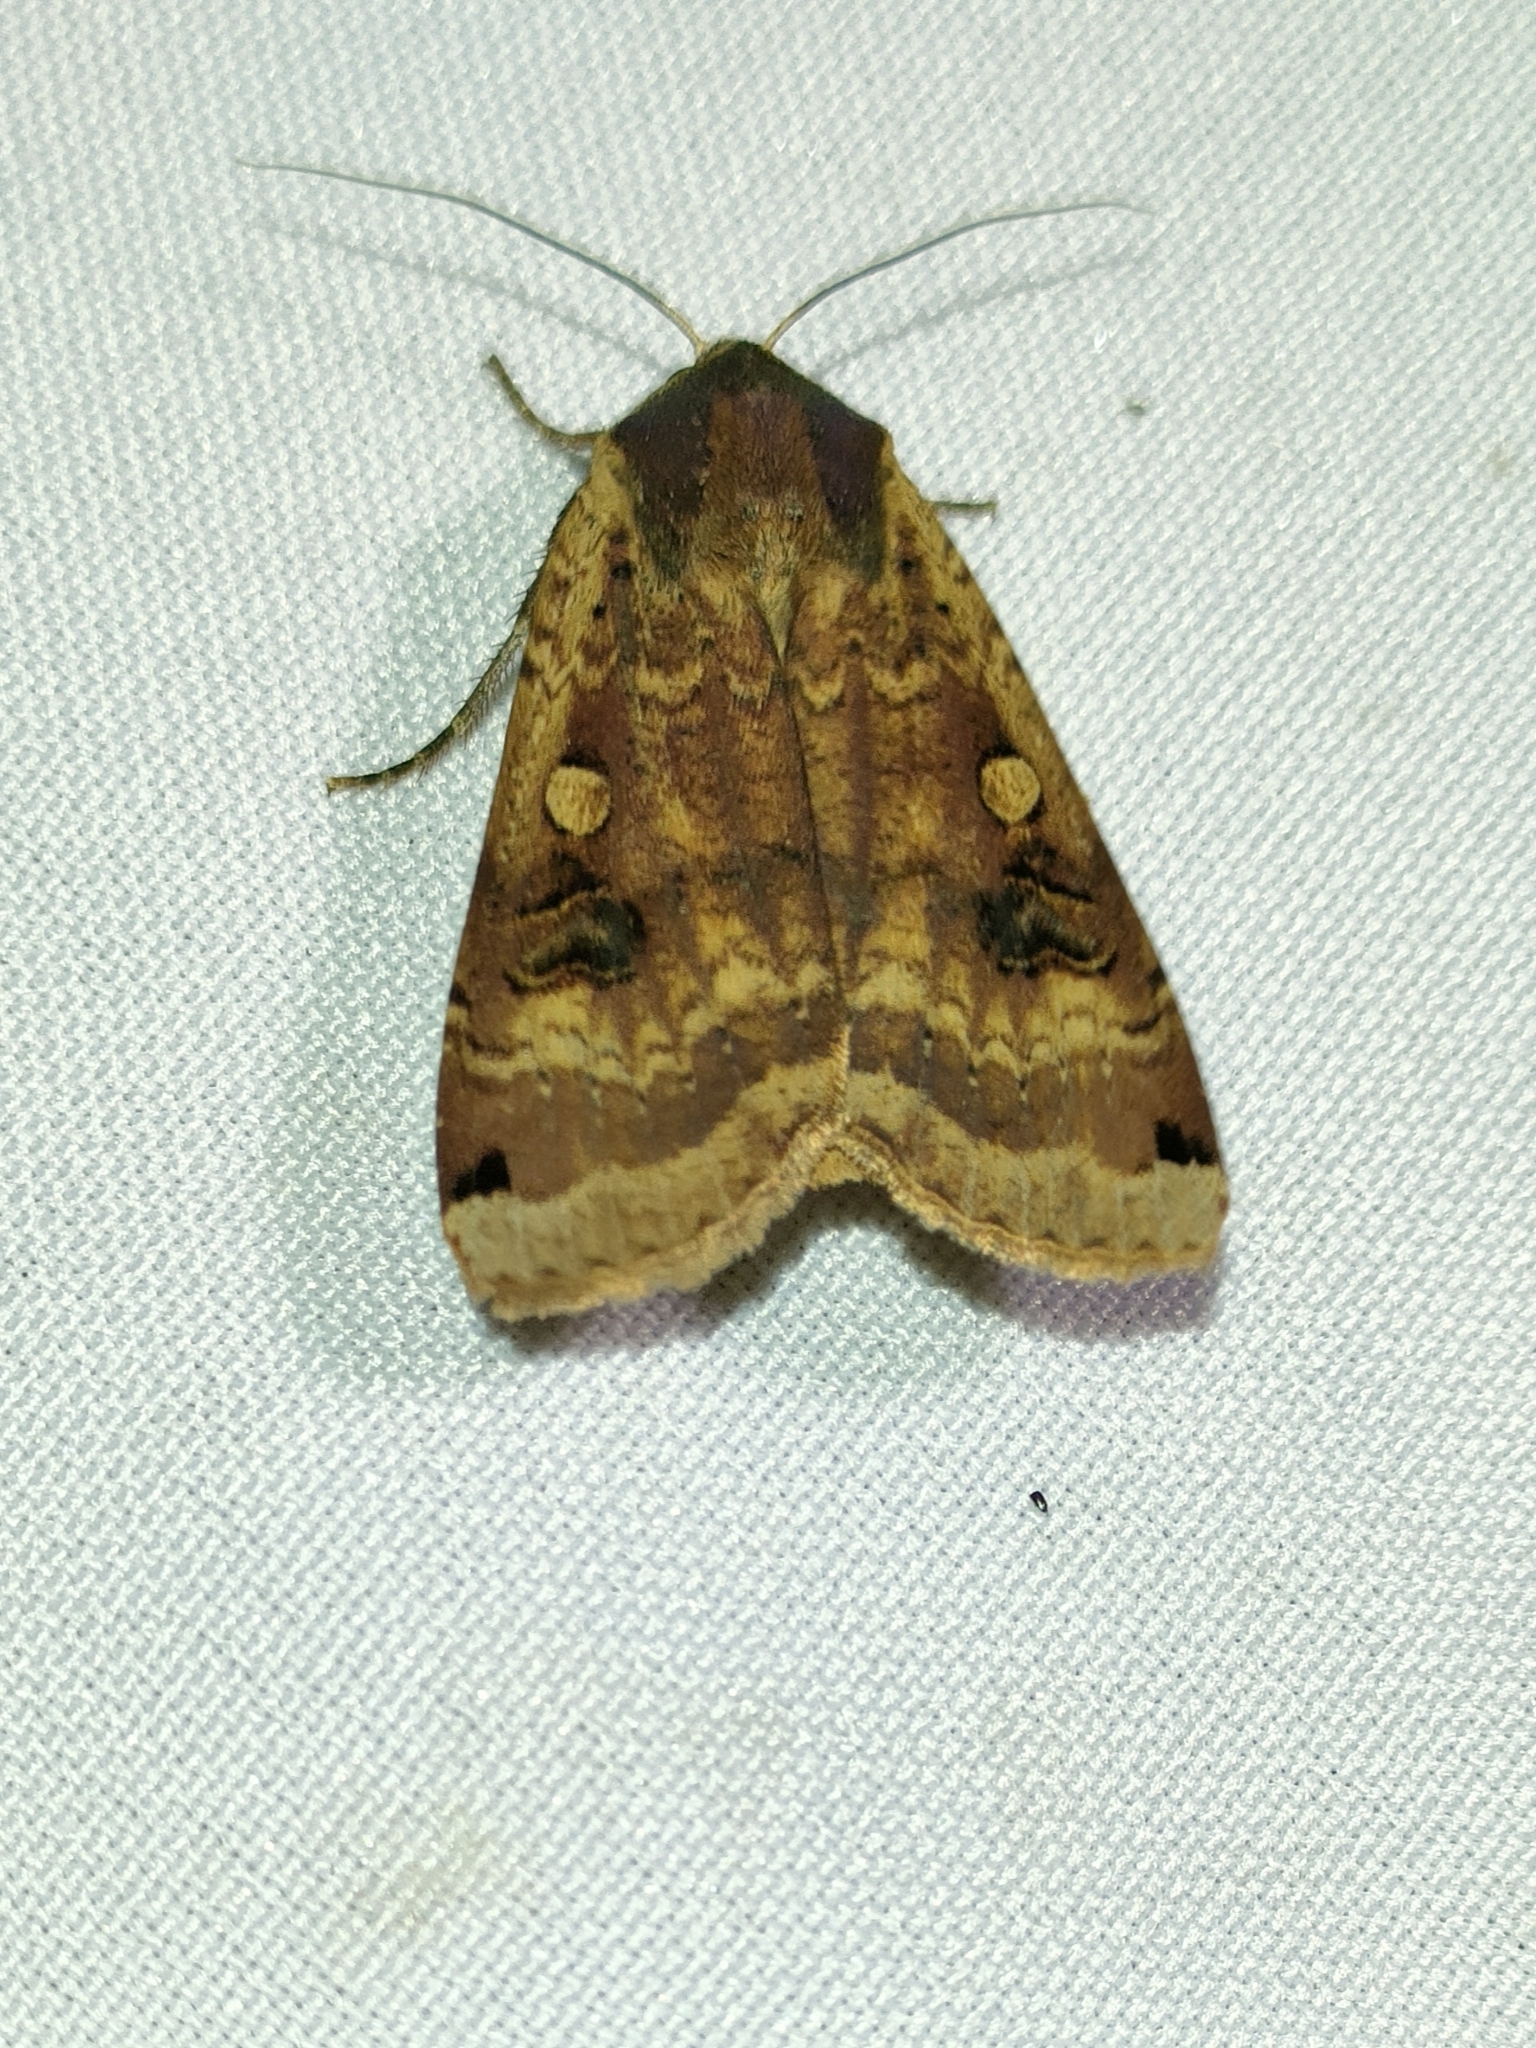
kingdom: Animalia
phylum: Arthropoda
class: Insecta
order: Lepidoptera
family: Noctuidae
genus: Noctua
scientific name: Noctua pronuba
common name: Large yellow underwing
